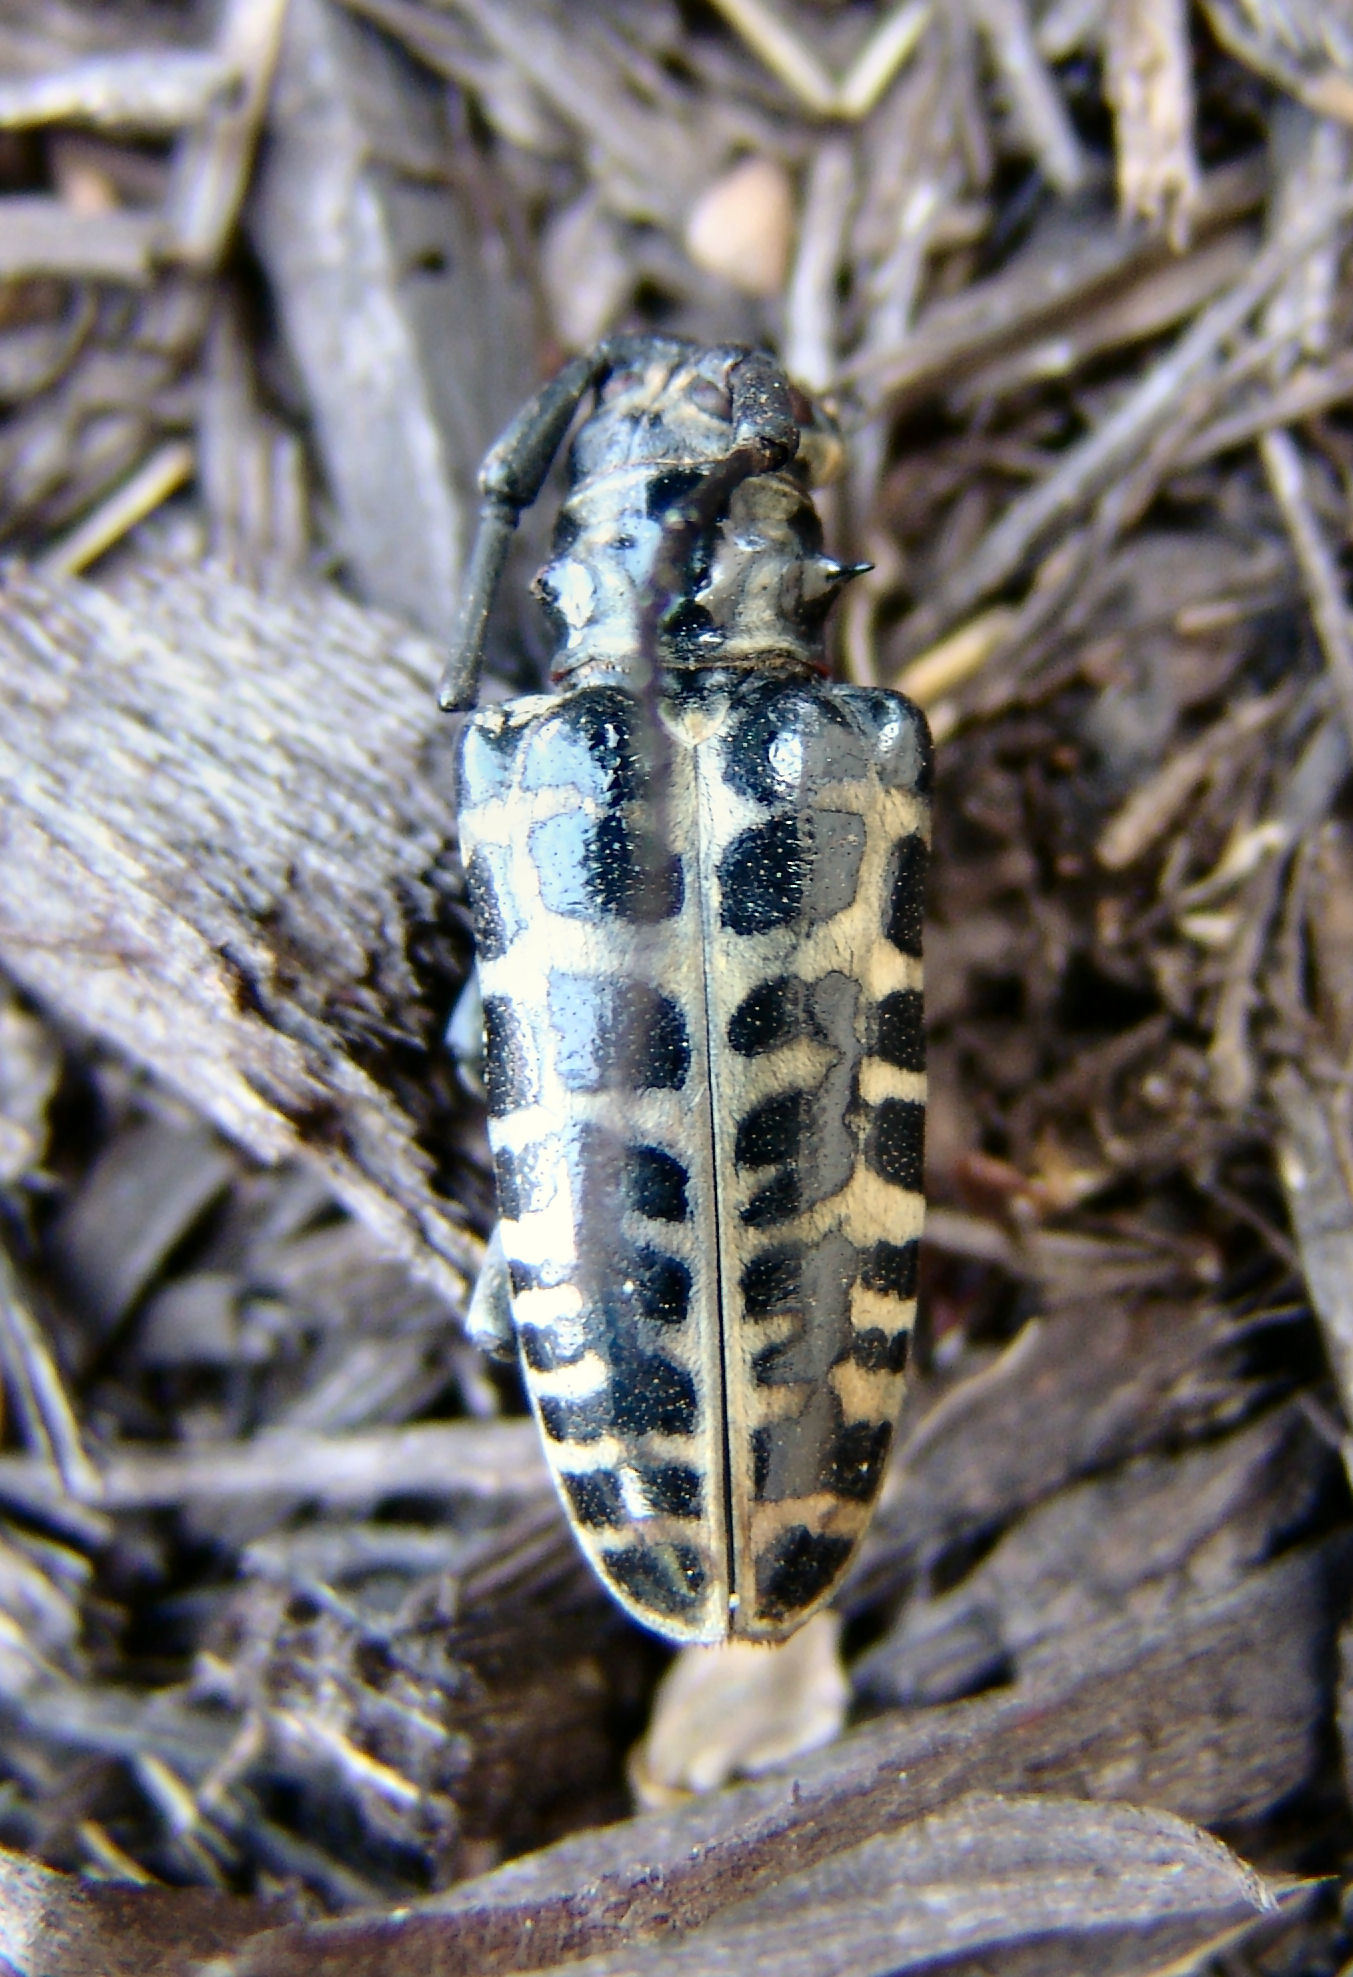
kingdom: Animalia
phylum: Arthropoda
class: Insecta
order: Coleoptera
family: Cerambycidae
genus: Plectrodera
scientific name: Plectrodera scalator
